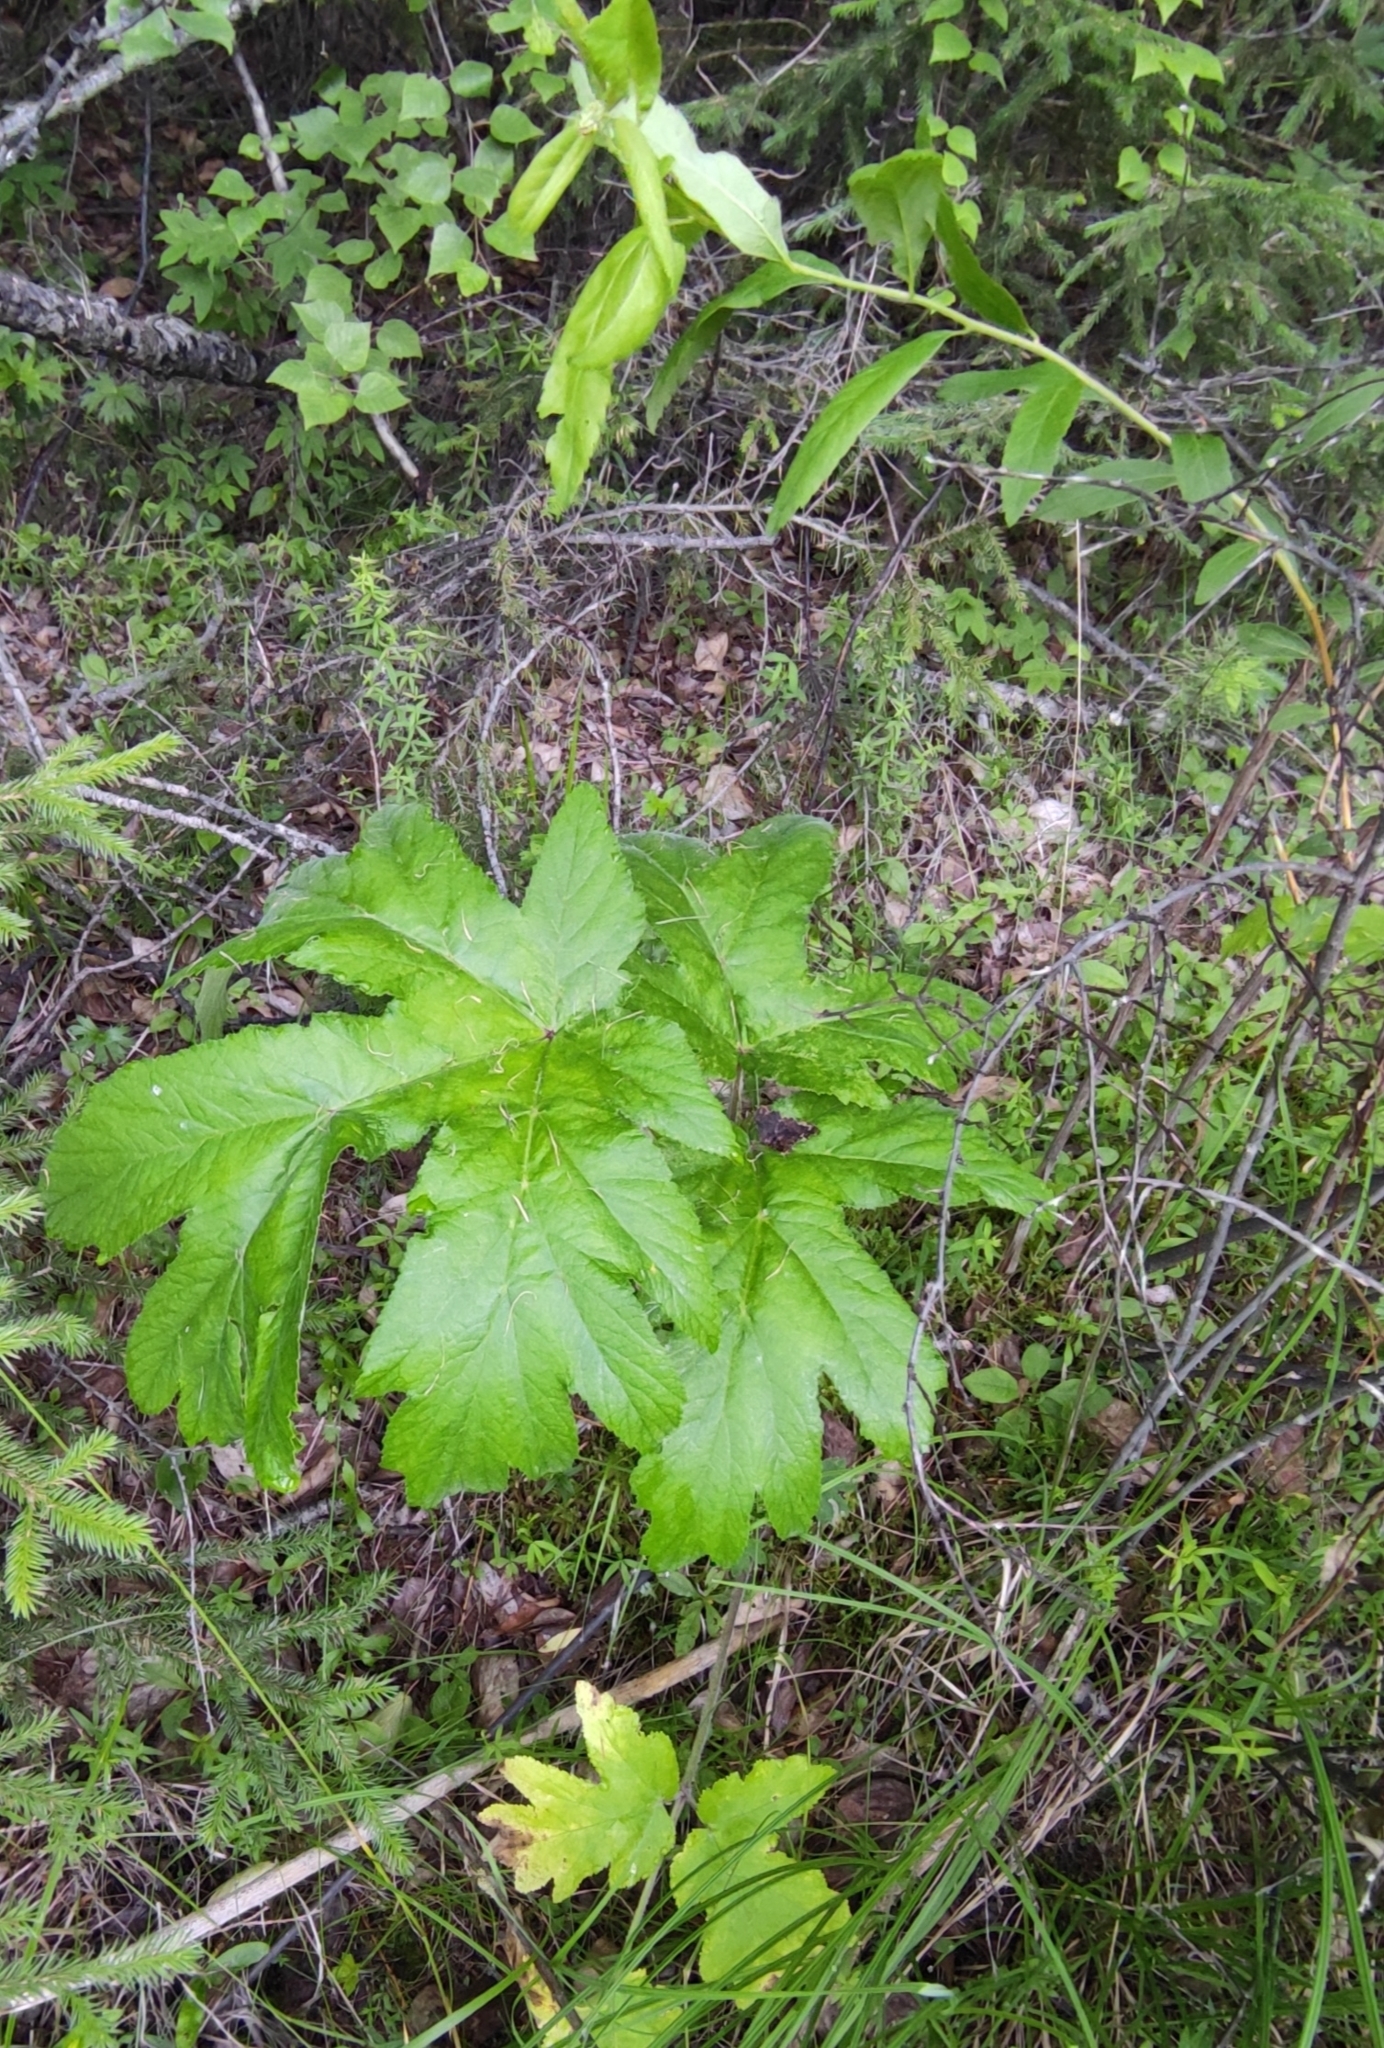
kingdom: Plantae
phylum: Tracheophyta
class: Magnoliopsida
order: Apiales
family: Apiaceae
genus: Heracleum
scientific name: Heracleum dissectum
